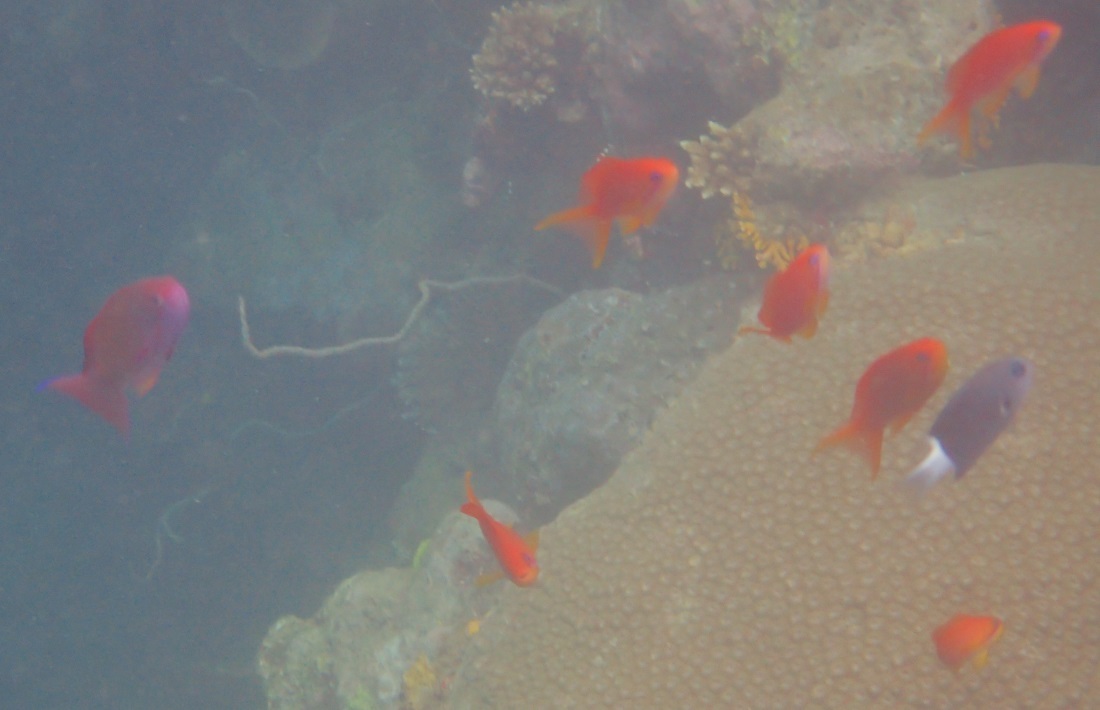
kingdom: Animalia
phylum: Chordata
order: Perciformes
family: Serranidae
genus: Pseudanthias
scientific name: Pseudanthias squamipinnis
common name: Scalefin anthias
